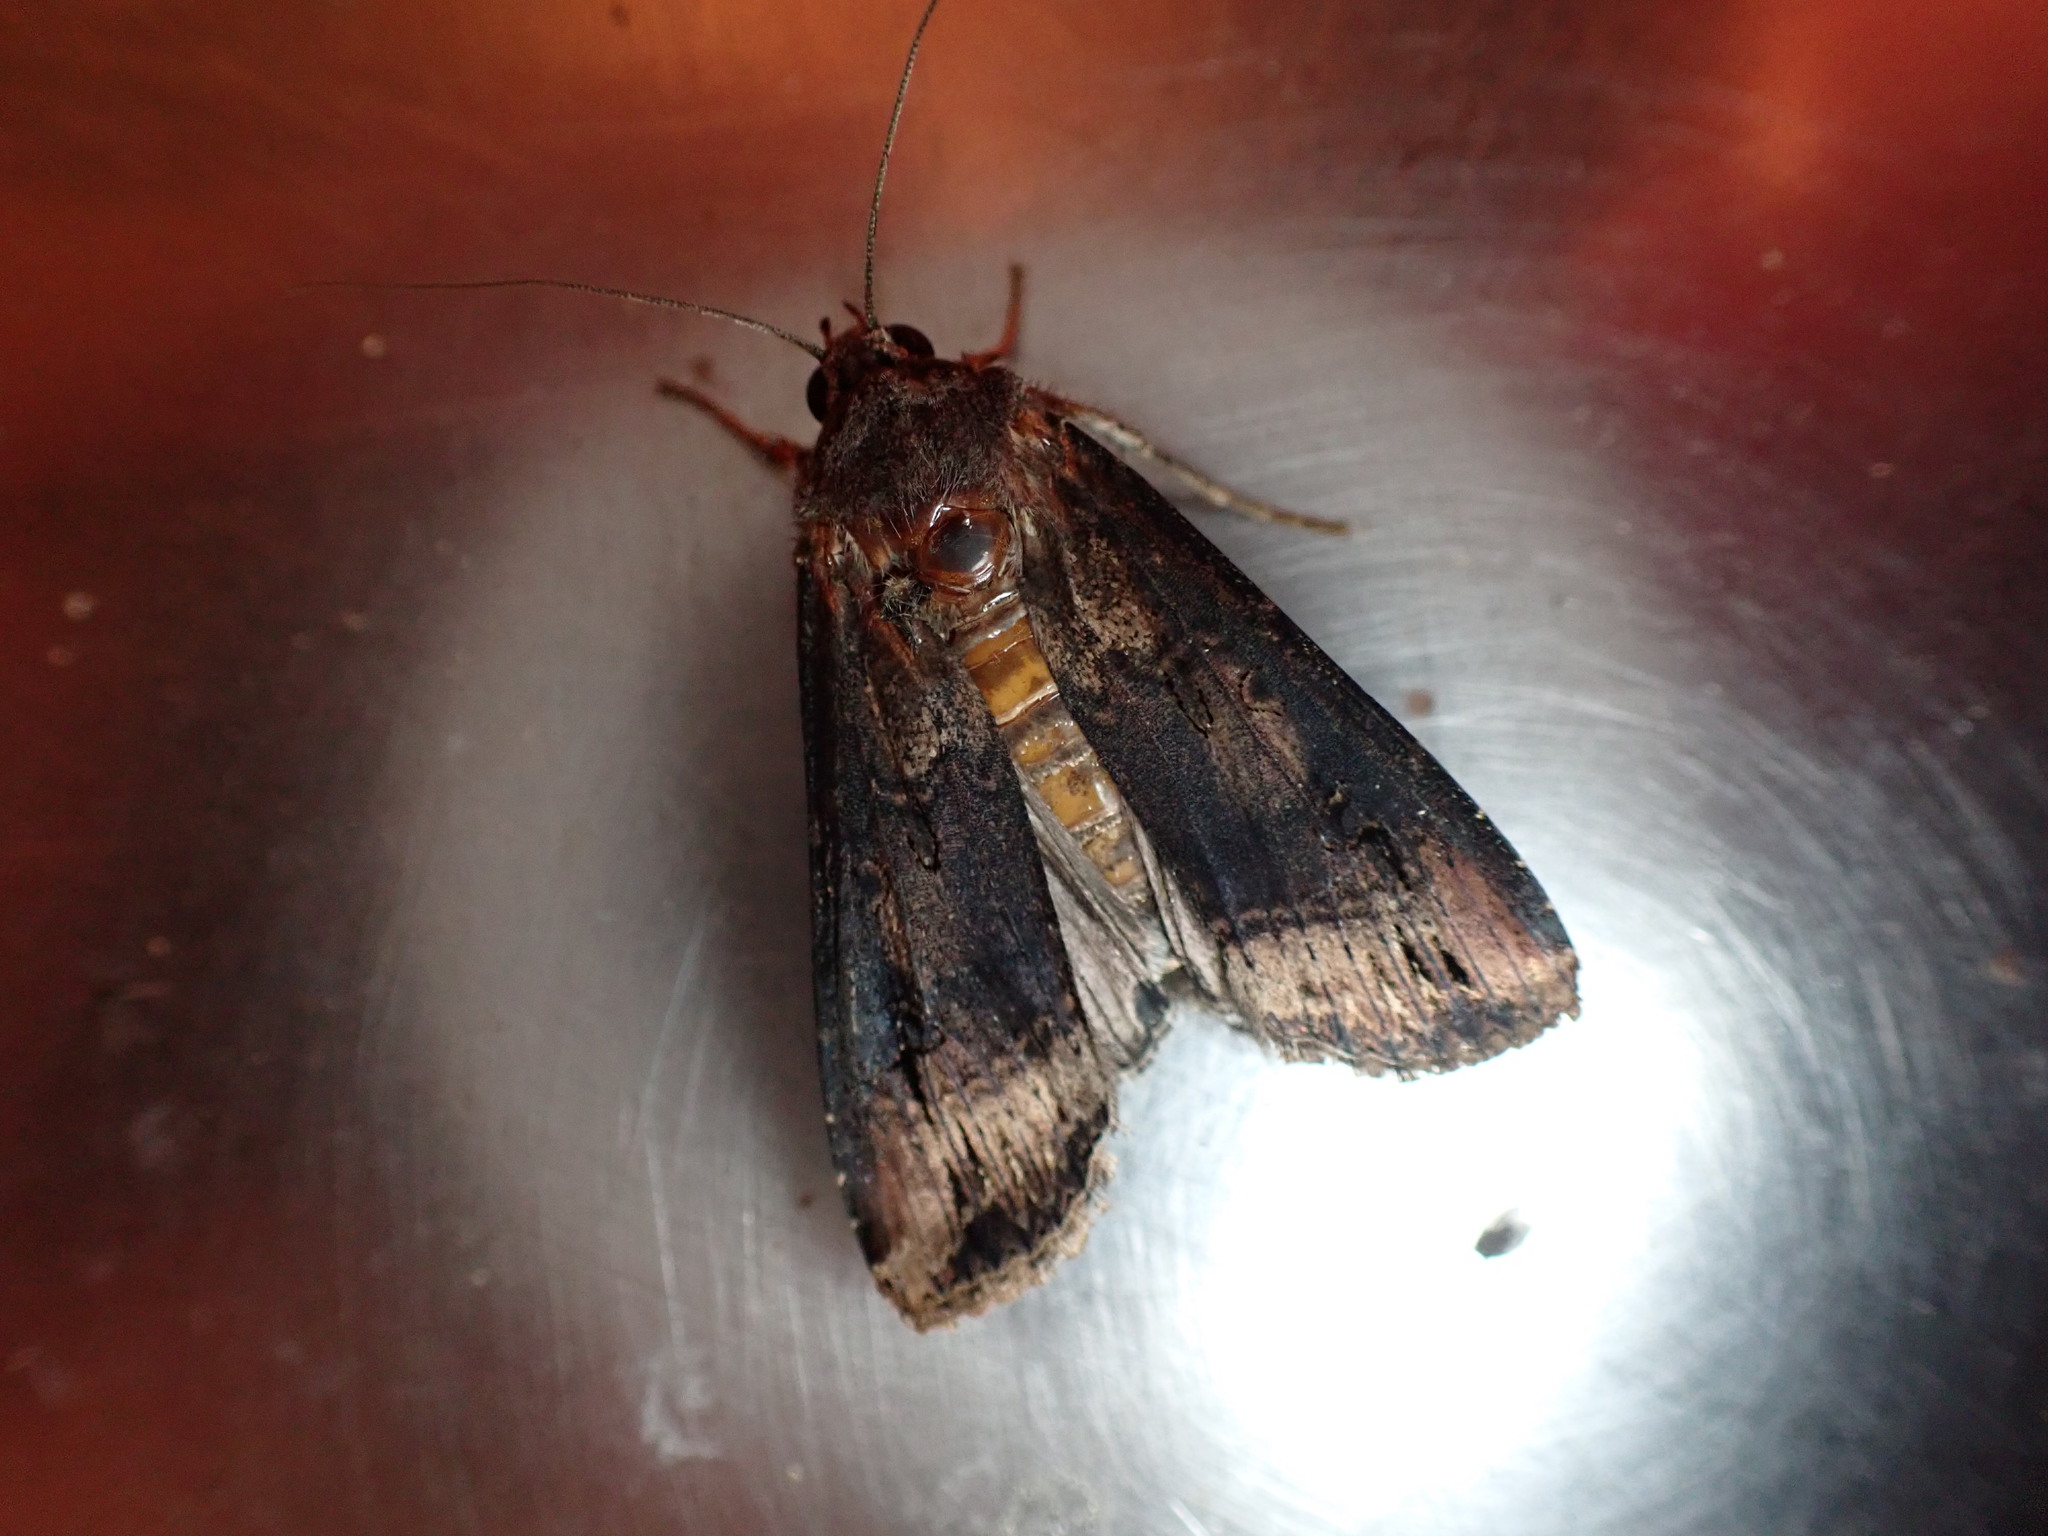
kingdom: Animalia
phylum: Arthropoda
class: Insecta
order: Lepidoptera
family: Noctuidae
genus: Agrotis
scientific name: Agrotis ipsilon
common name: Dark sword-grass
